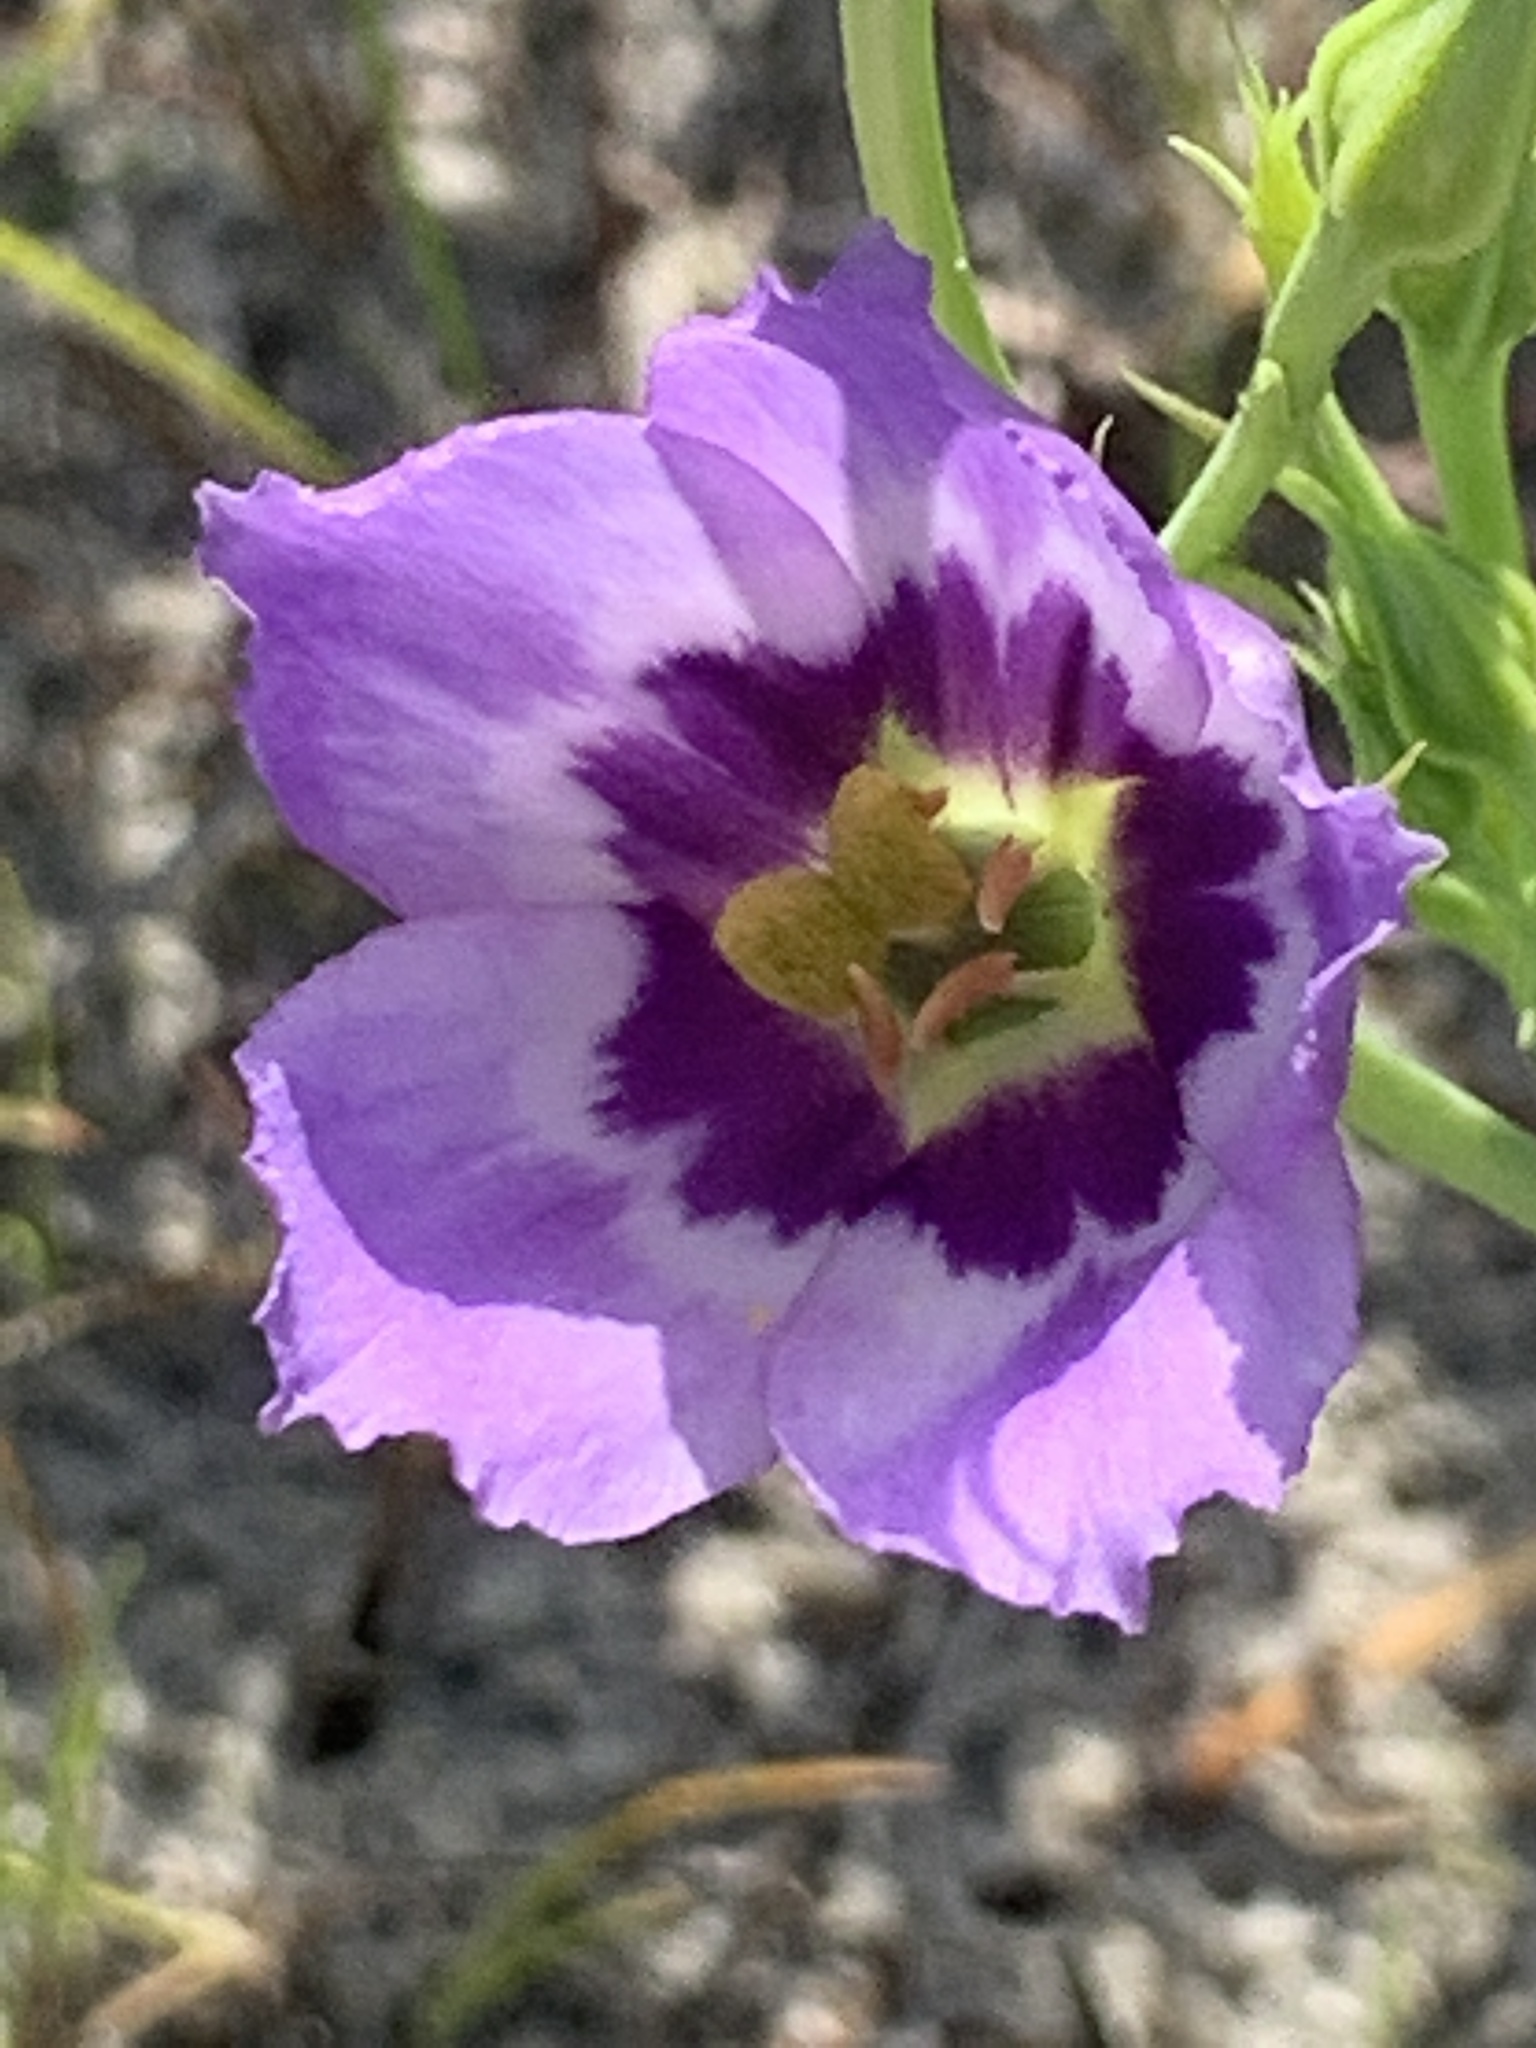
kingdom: Plantae
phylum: Tracheophyta
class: Magnoliopsida
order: Gentianales
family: Gentianaceae
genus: Eustoma
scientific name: Eustoma exaltatum
